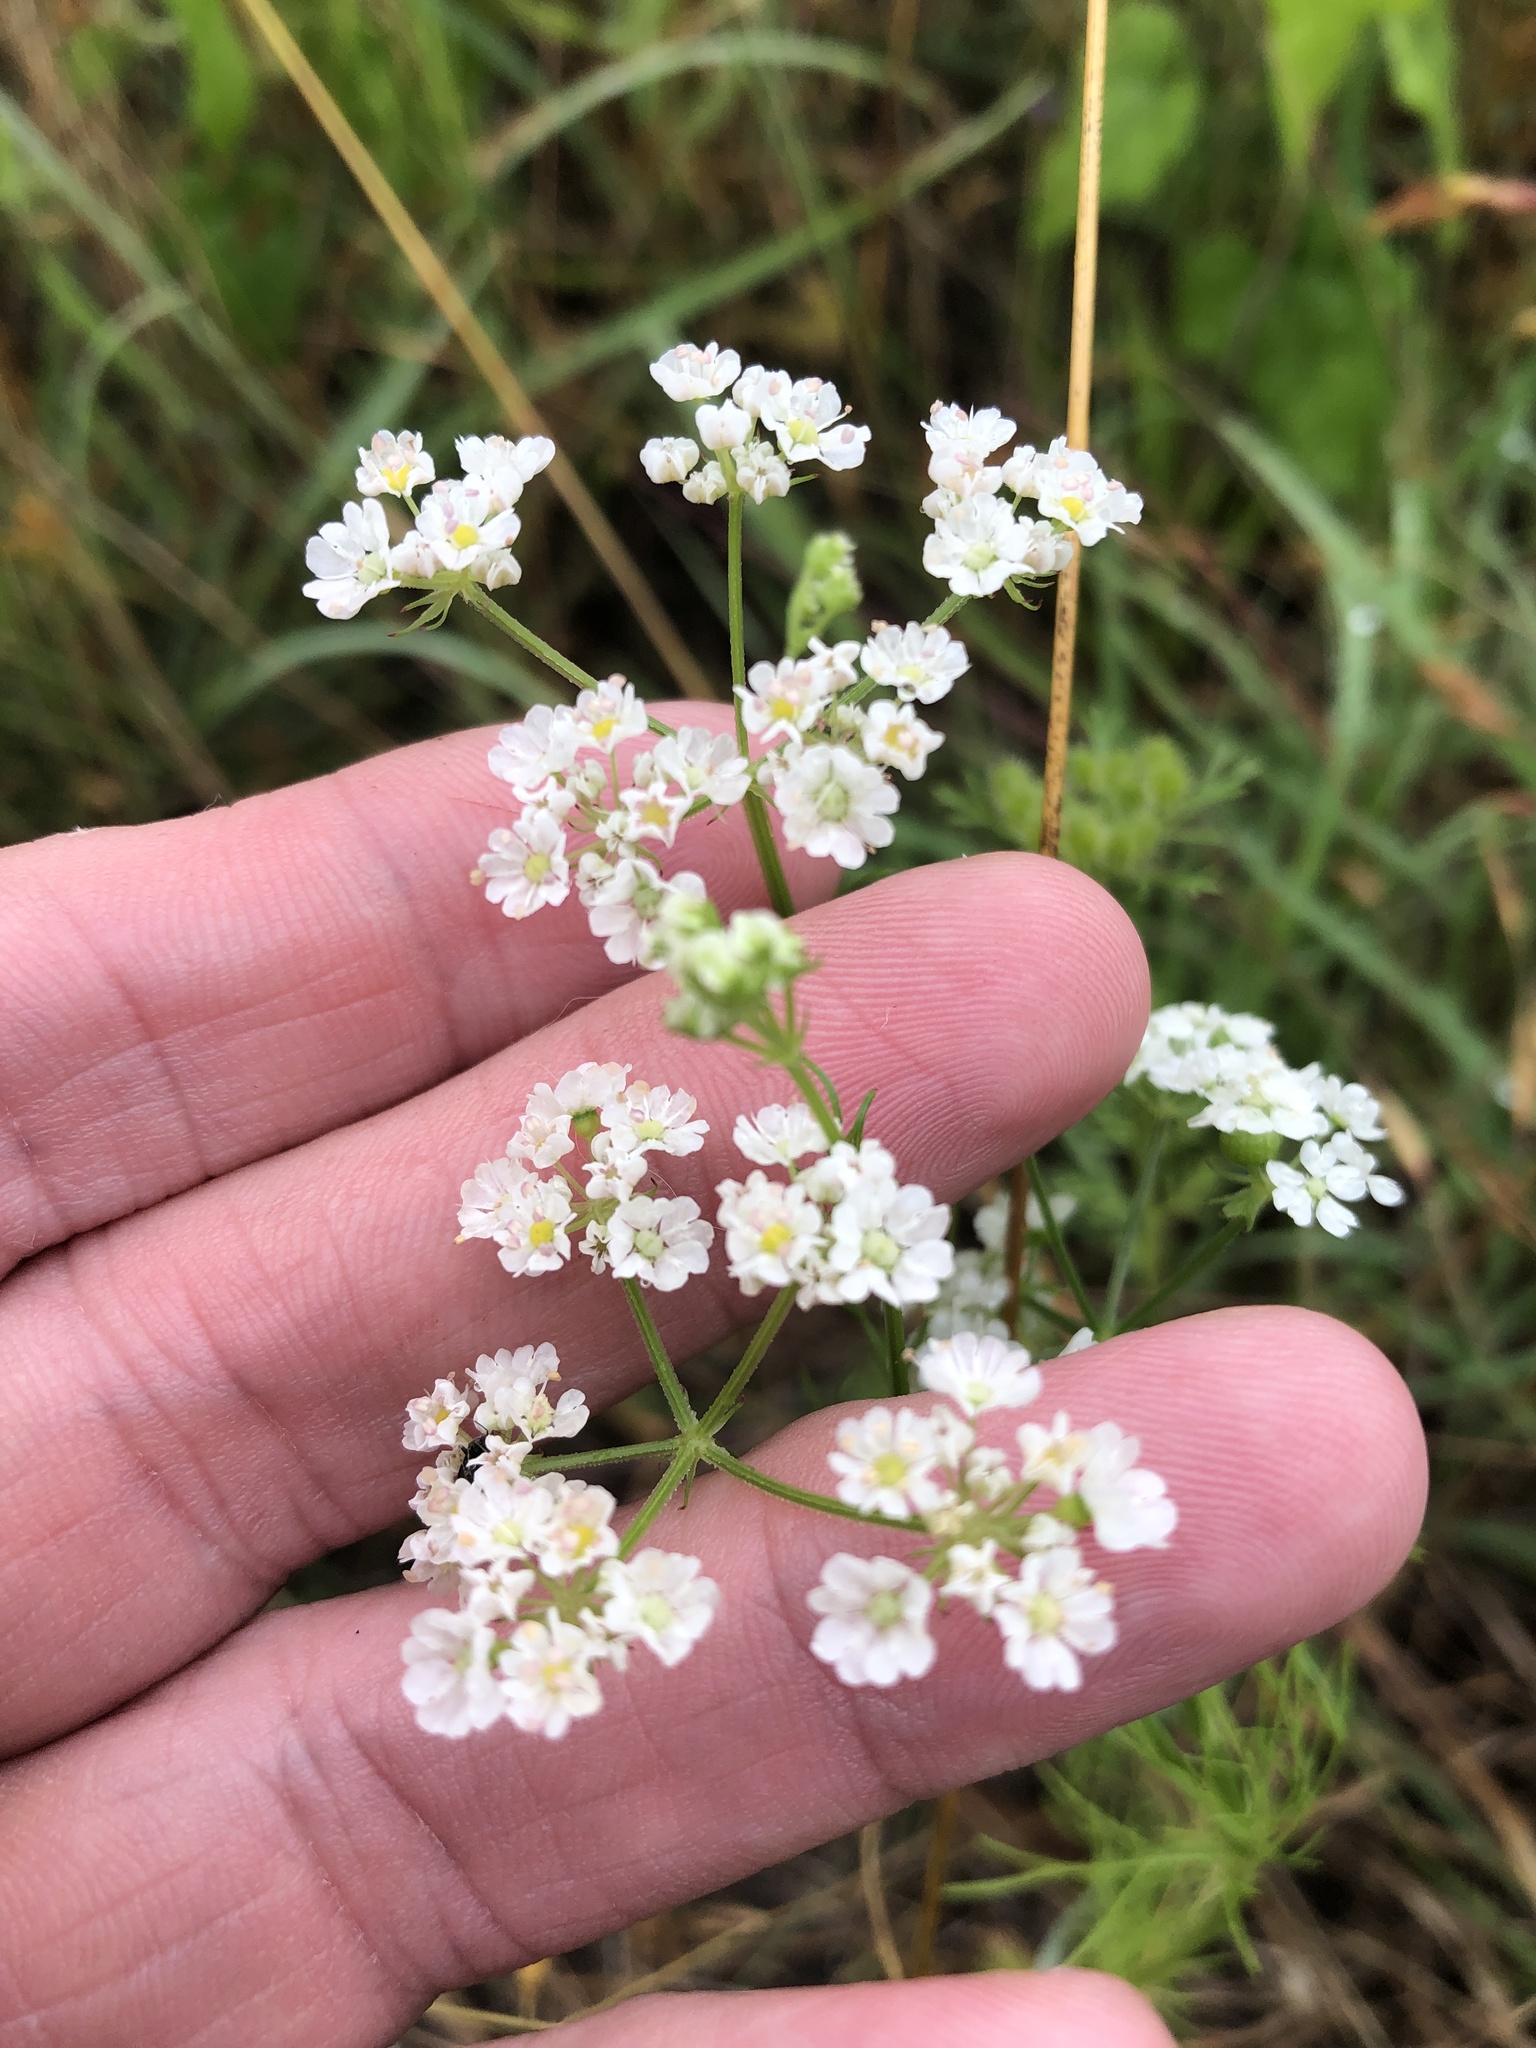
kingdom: Plantae
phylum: Tracheophyta
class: Magnoliopsida
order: Apiales
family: Apiaceae
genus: Atrema
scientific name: Atrema americanum
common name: Prairie-bishop
